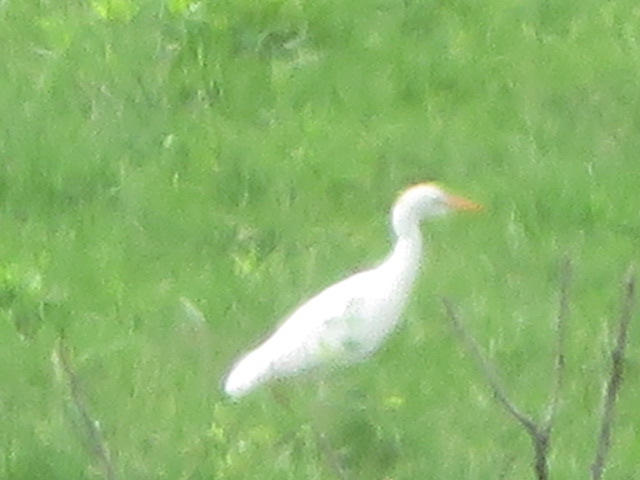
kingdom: Animalia
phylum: Chordata
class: Aves
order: Pelecaniformes
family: Ardeidae
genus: Bubulcus
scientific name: Bubulcus ibis
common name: Cattle egret
